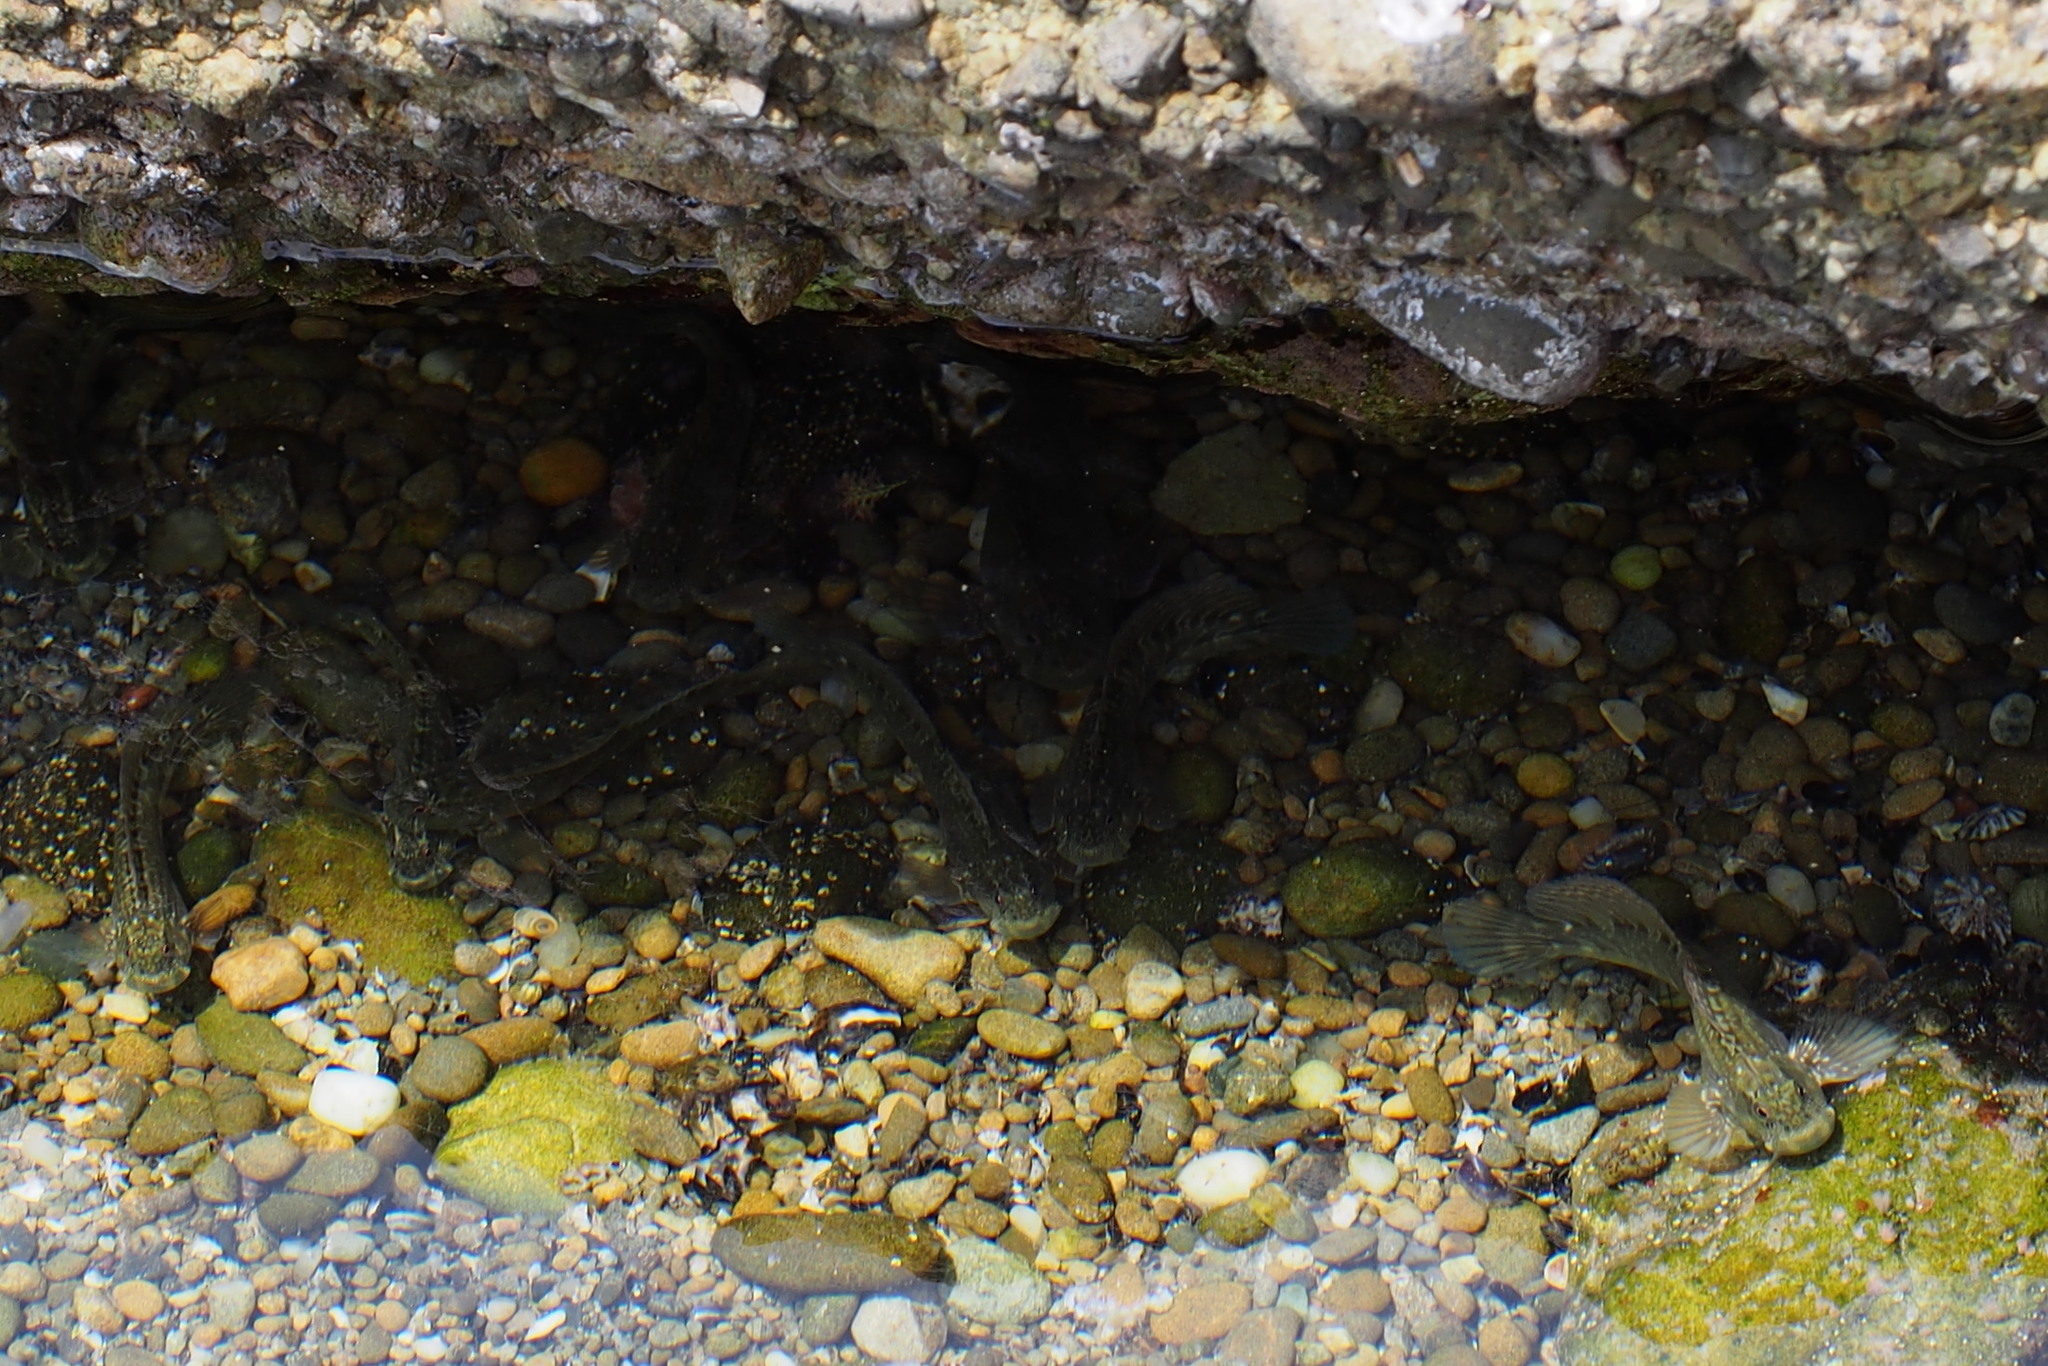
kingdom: Animalia
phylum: Chordata
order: Perciformes
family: Blenniidae
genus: Entomacrodus
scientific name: Entomacrodus striatus
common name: Pearly rockskipper
